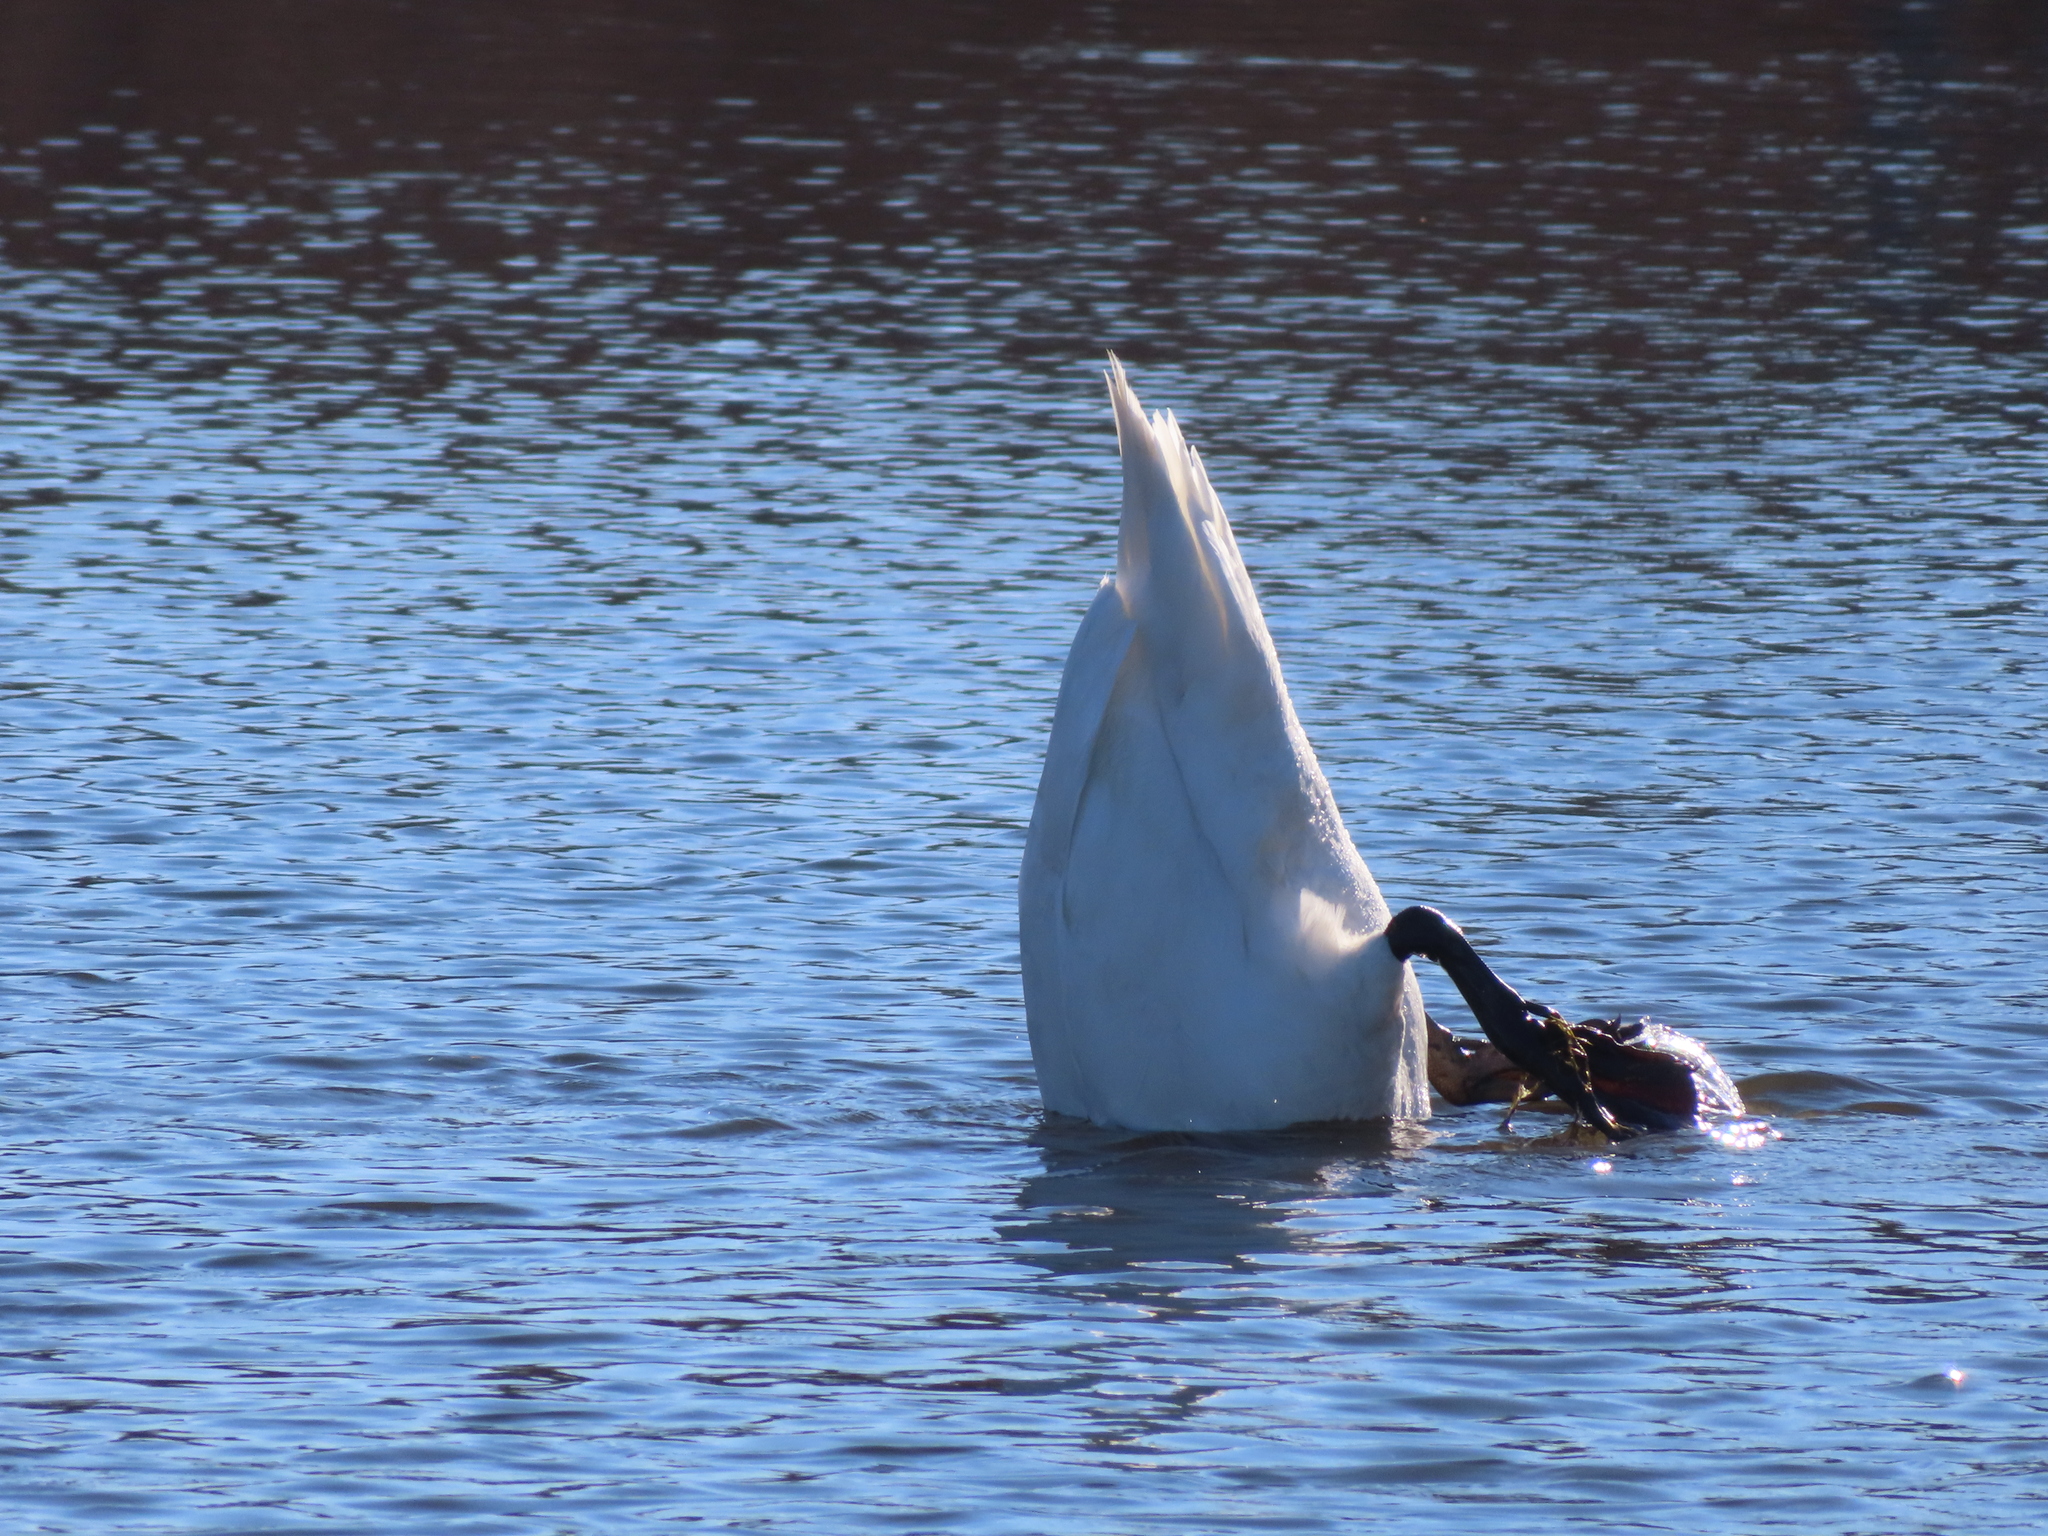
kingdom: Animalia
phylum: Chordata
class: Aves
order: Anseriformes
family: Anatidae
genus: Cygnus
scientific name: Cygnus olor
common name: Mute swan
